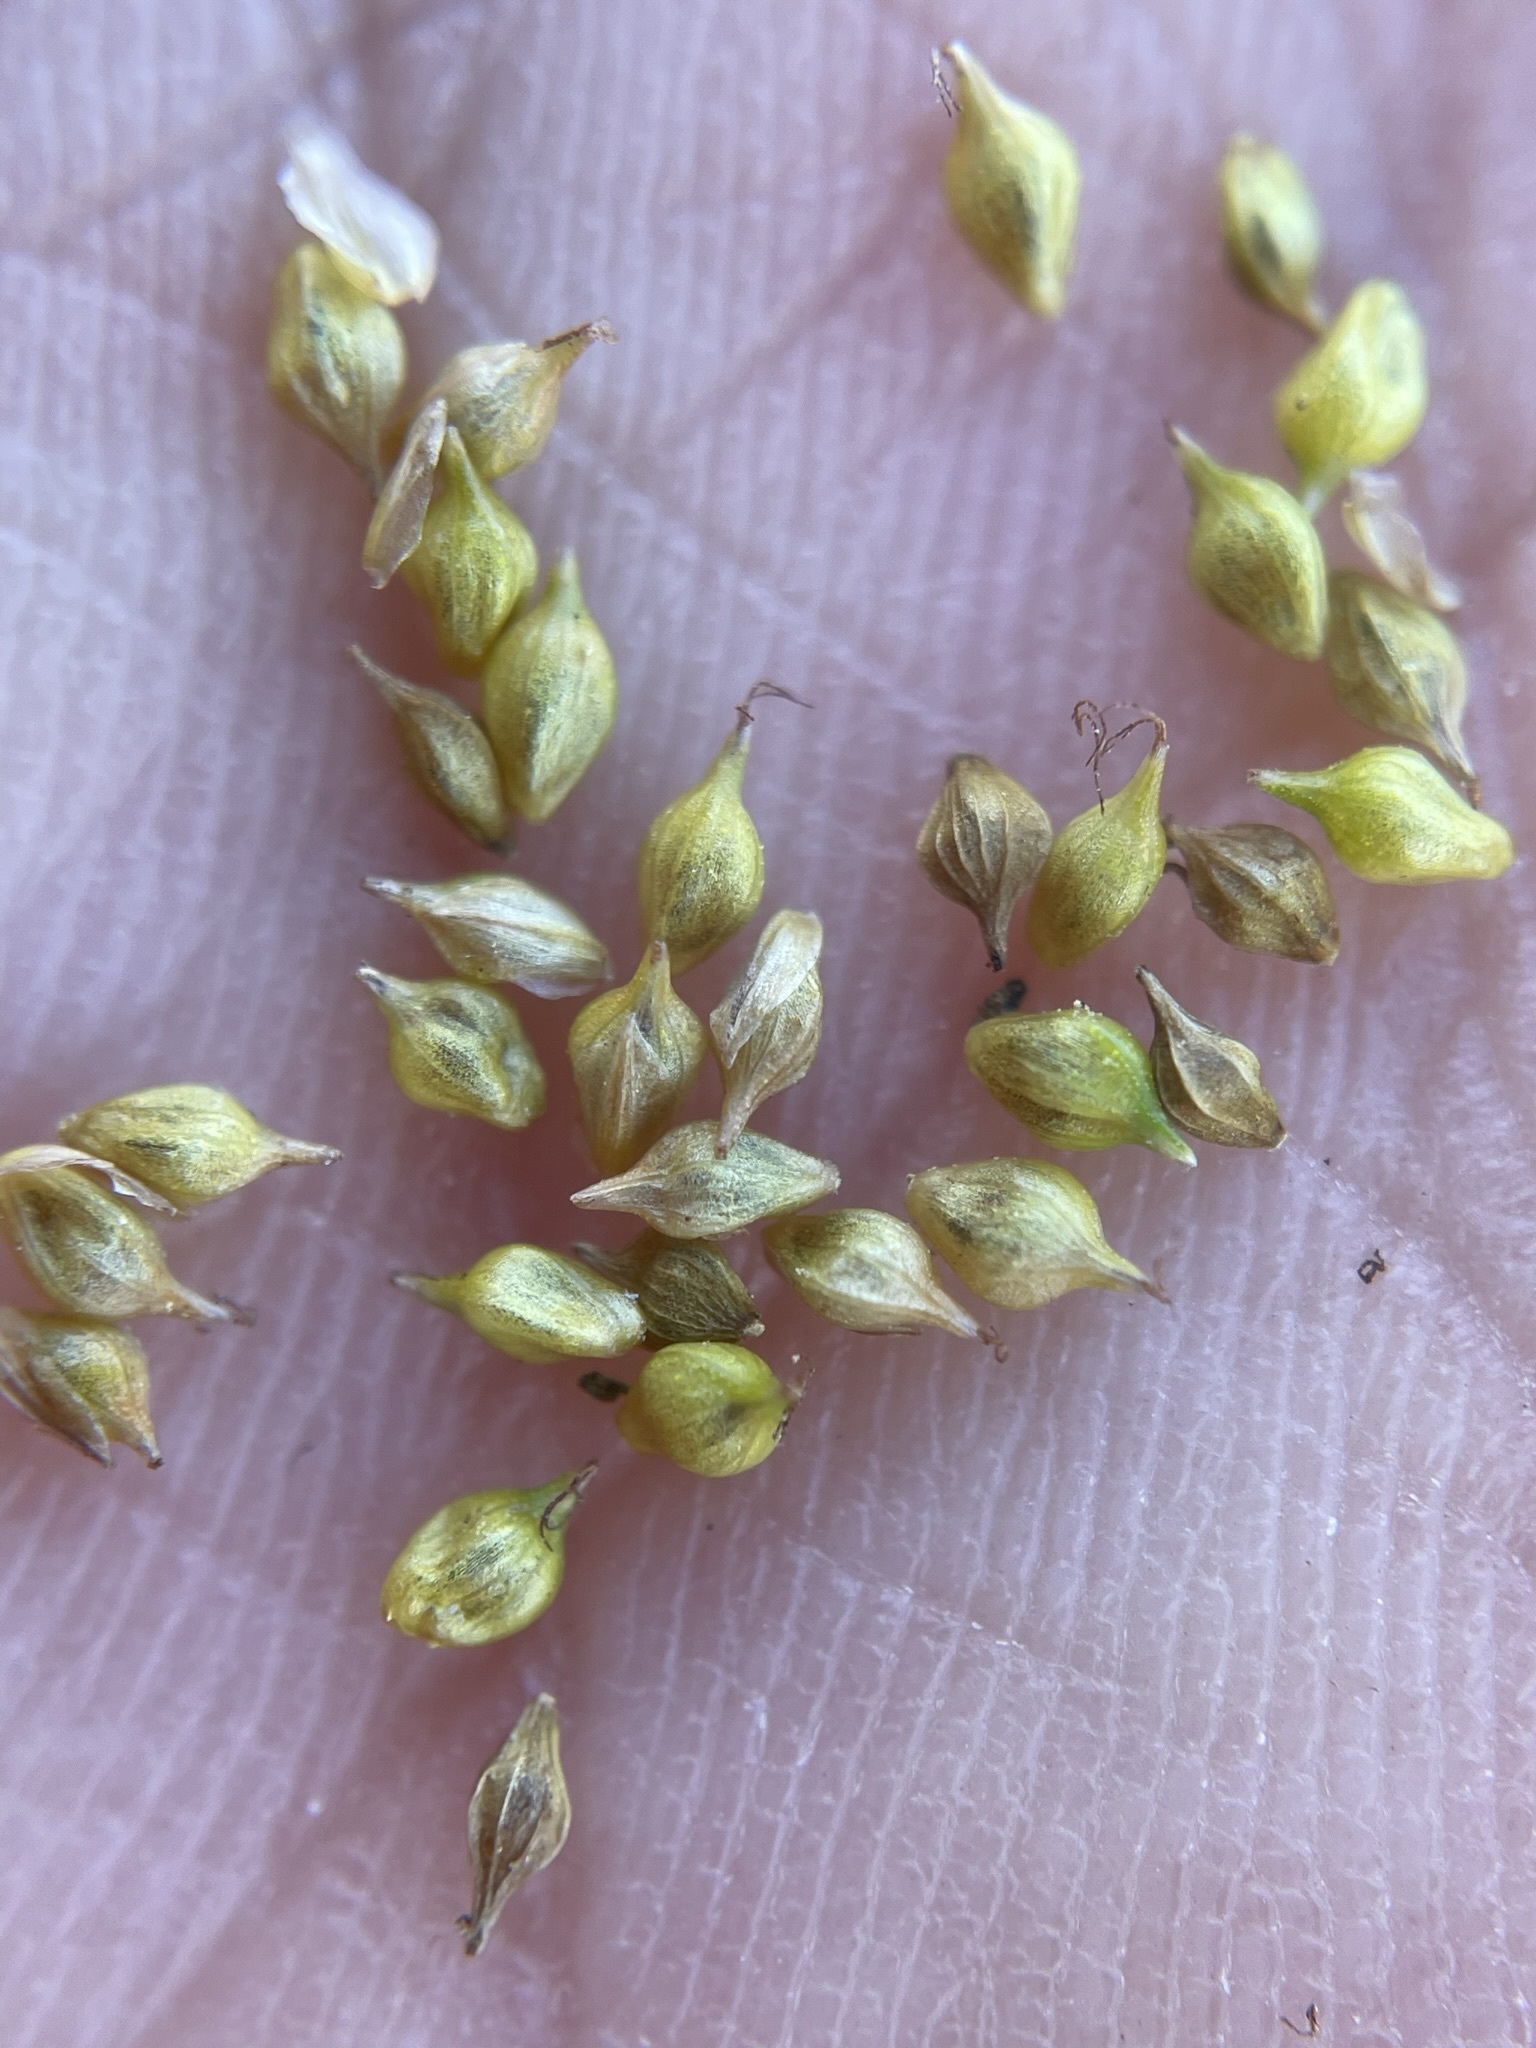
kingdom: Plantae
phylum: Tracheophyta
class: Liliopsida
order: Poales
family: Cyperaceae
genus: Carex
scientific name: Carex
